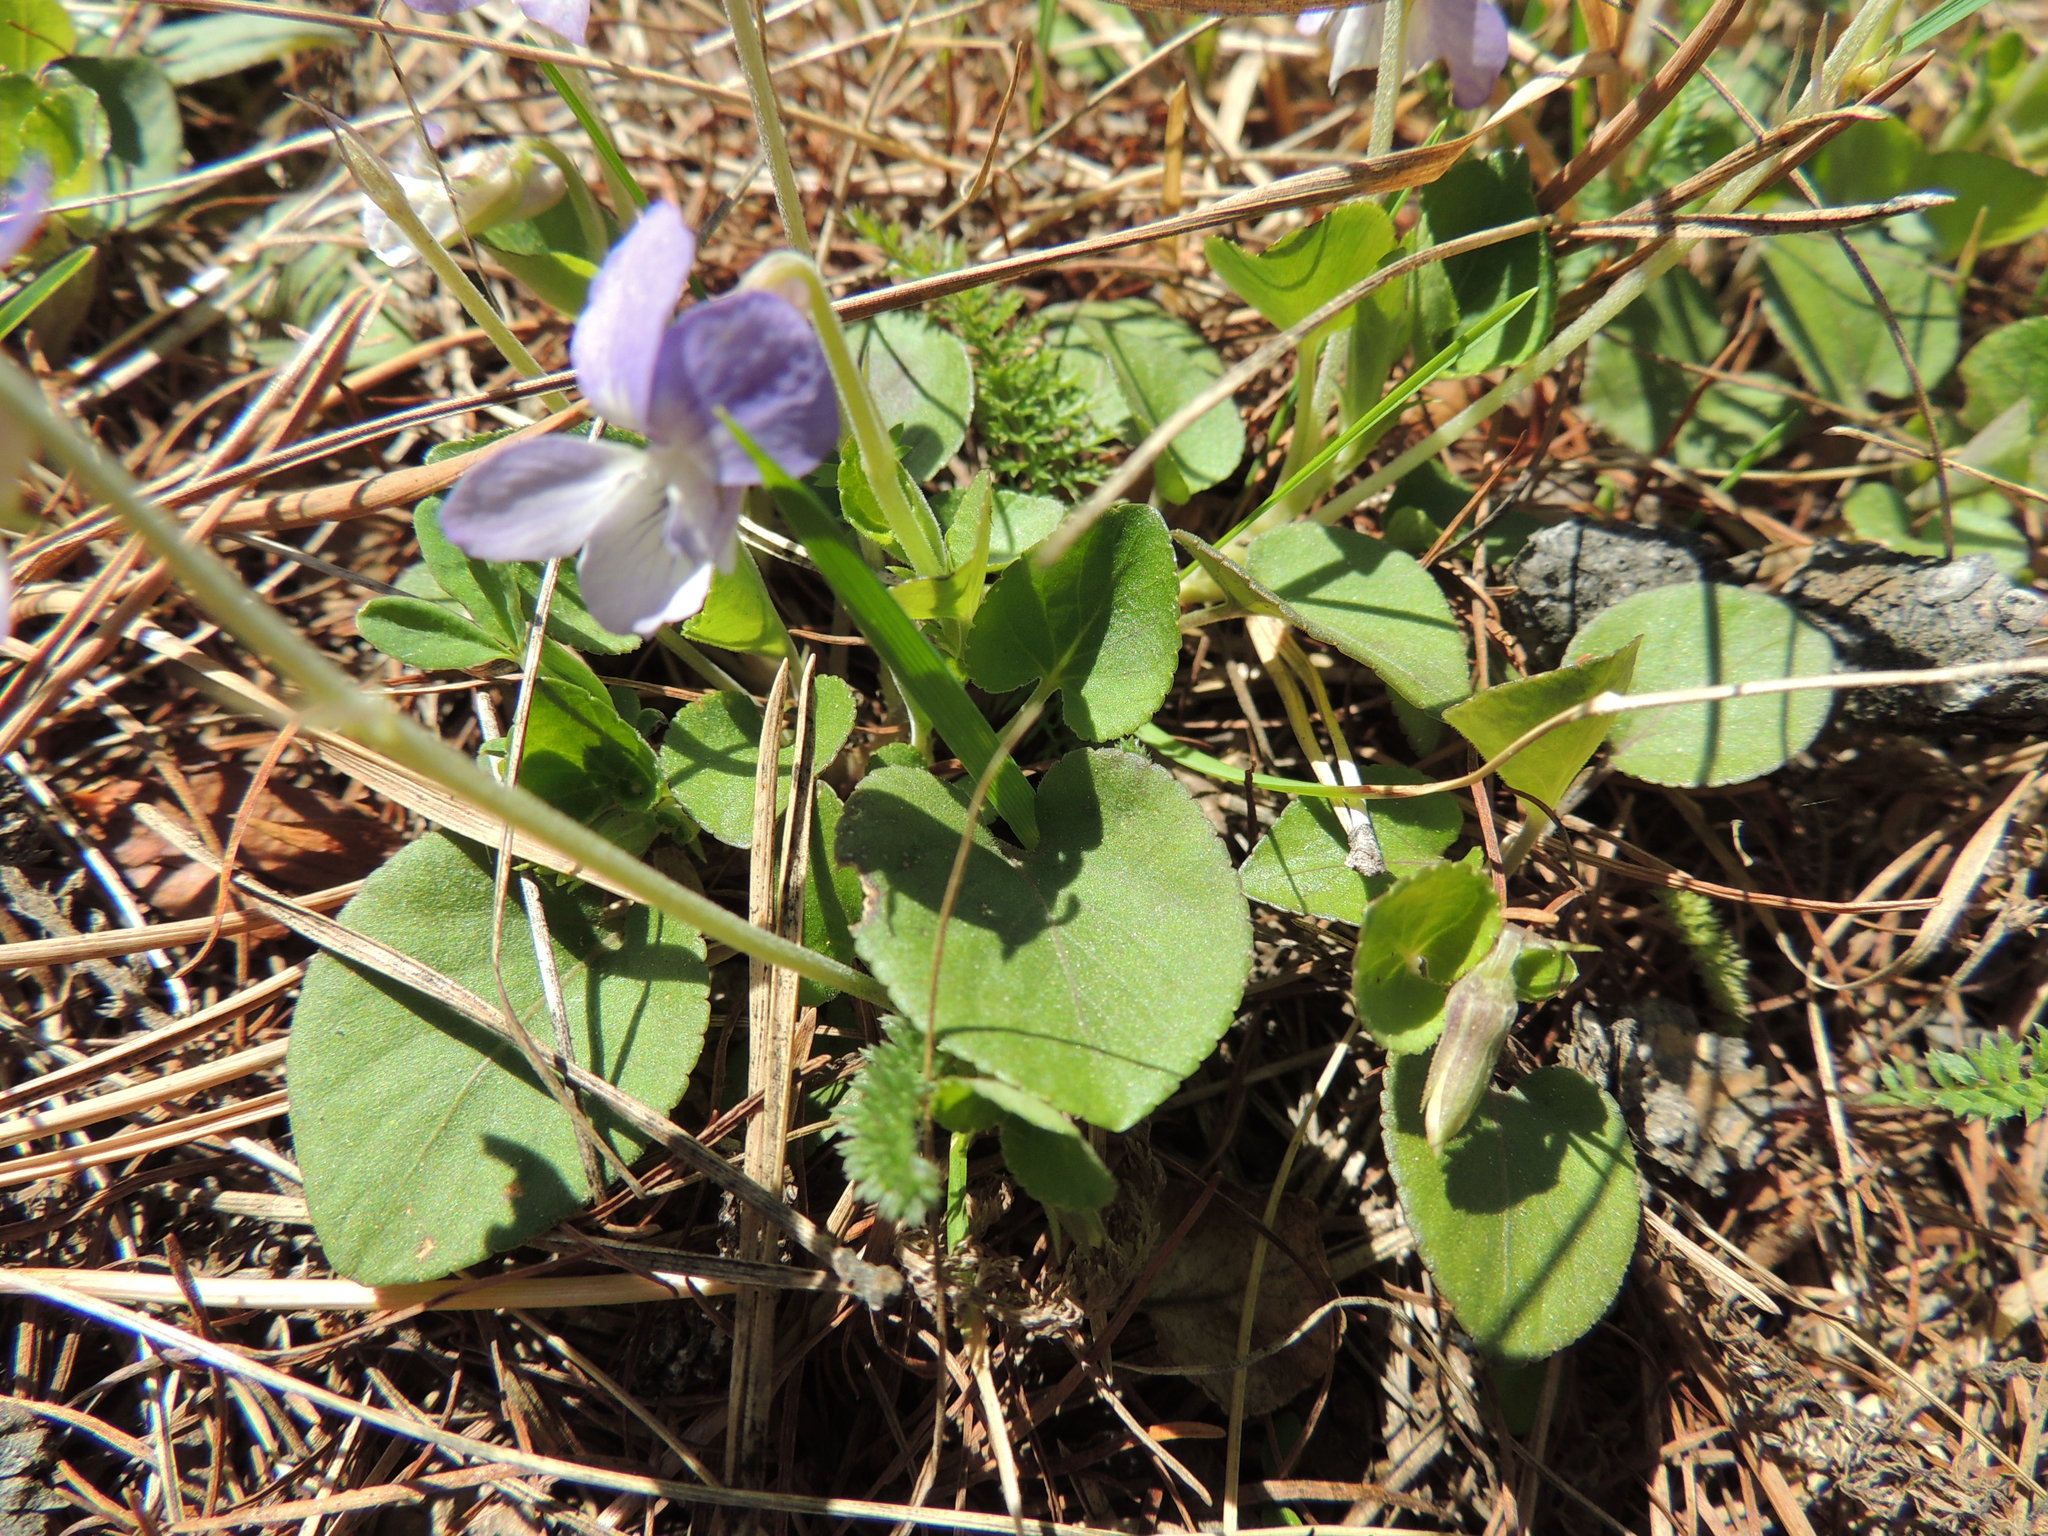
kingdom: Plantae
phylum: Tracheophyta
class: Magnoliopsida
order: Malpighiales
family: Violaceae
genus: Viola
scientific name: Viola rupestris
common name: Teesdale violet
